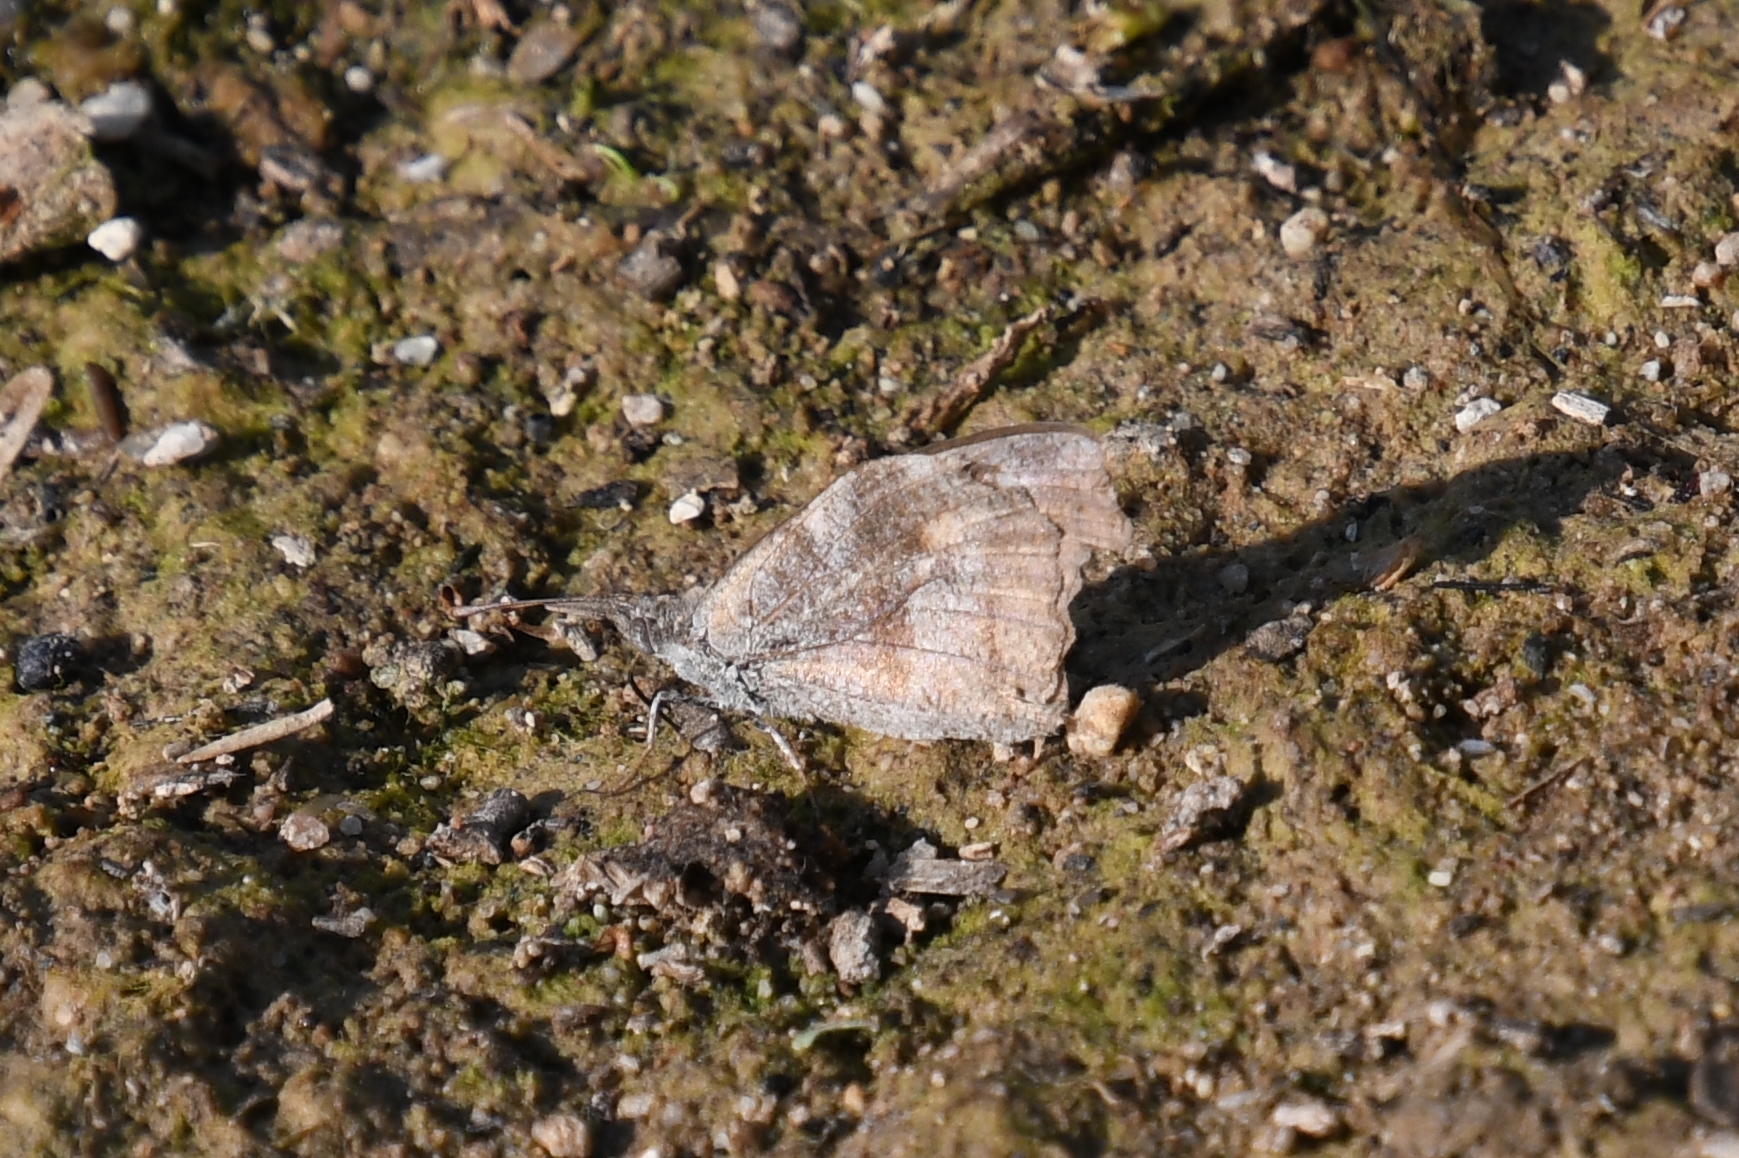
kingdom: Animalia
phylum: Arthropoda
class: Insecta
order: Lepidoptera
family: Nymphalidae
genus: Libytheana
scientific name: Libytheana carinenta
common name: American snout
